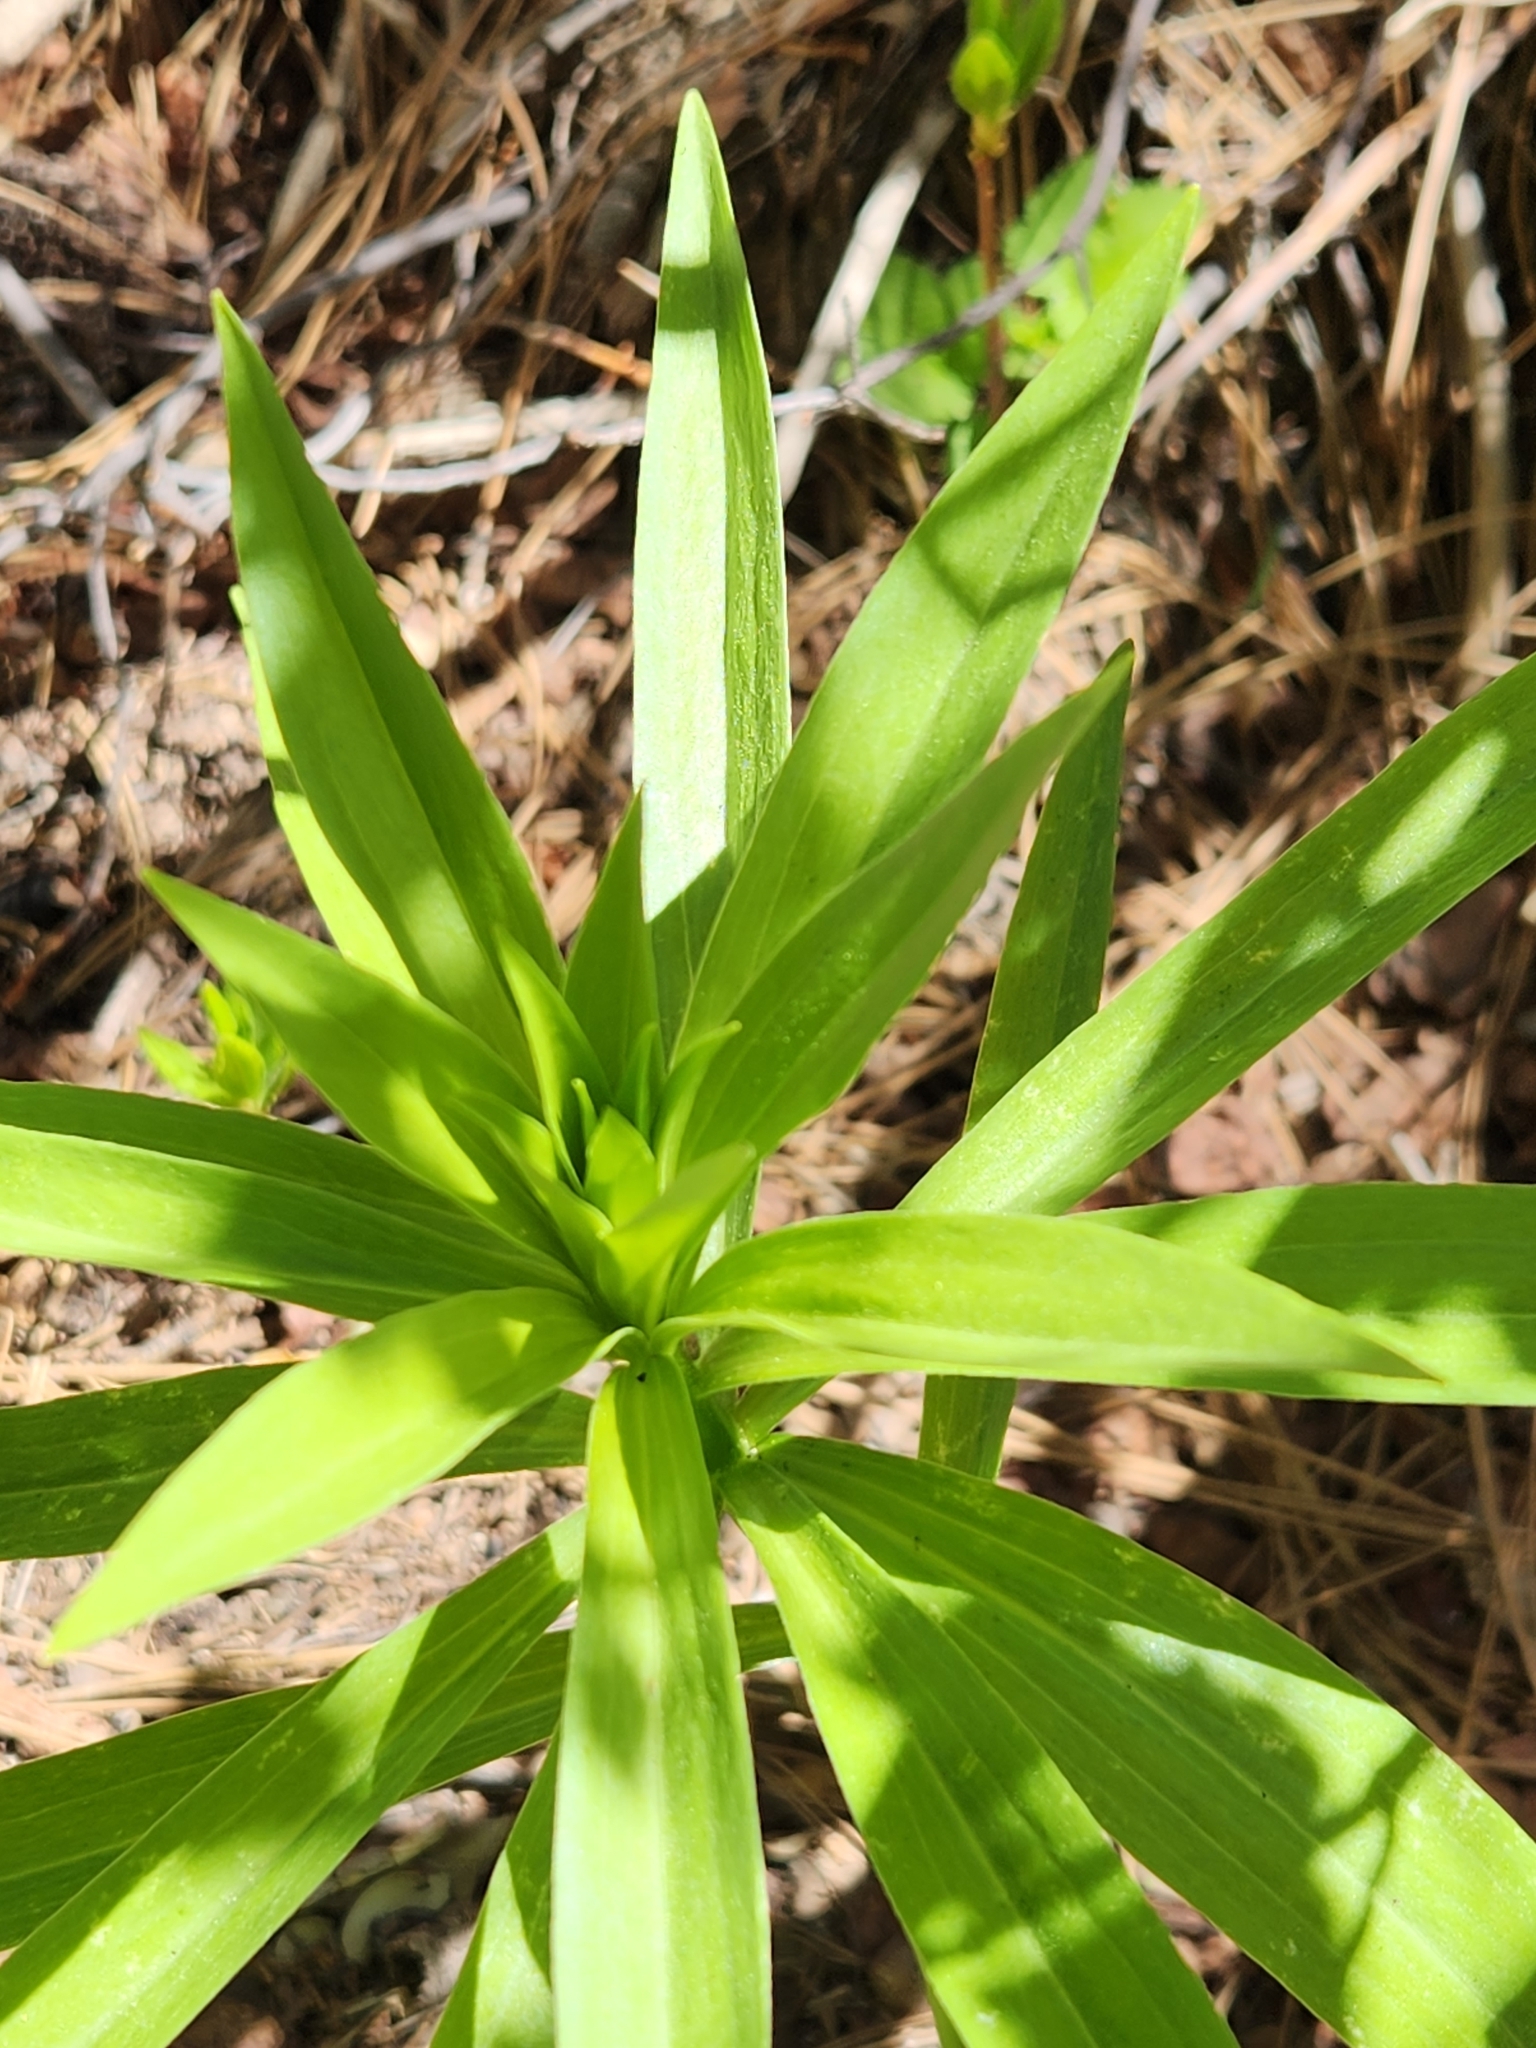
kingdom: Plantae
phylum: Tracheophyta
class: Liliopsida
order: Liliales
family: Liliaceae
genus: Lilium
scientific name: Lilium parryi
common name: Lemon lily
